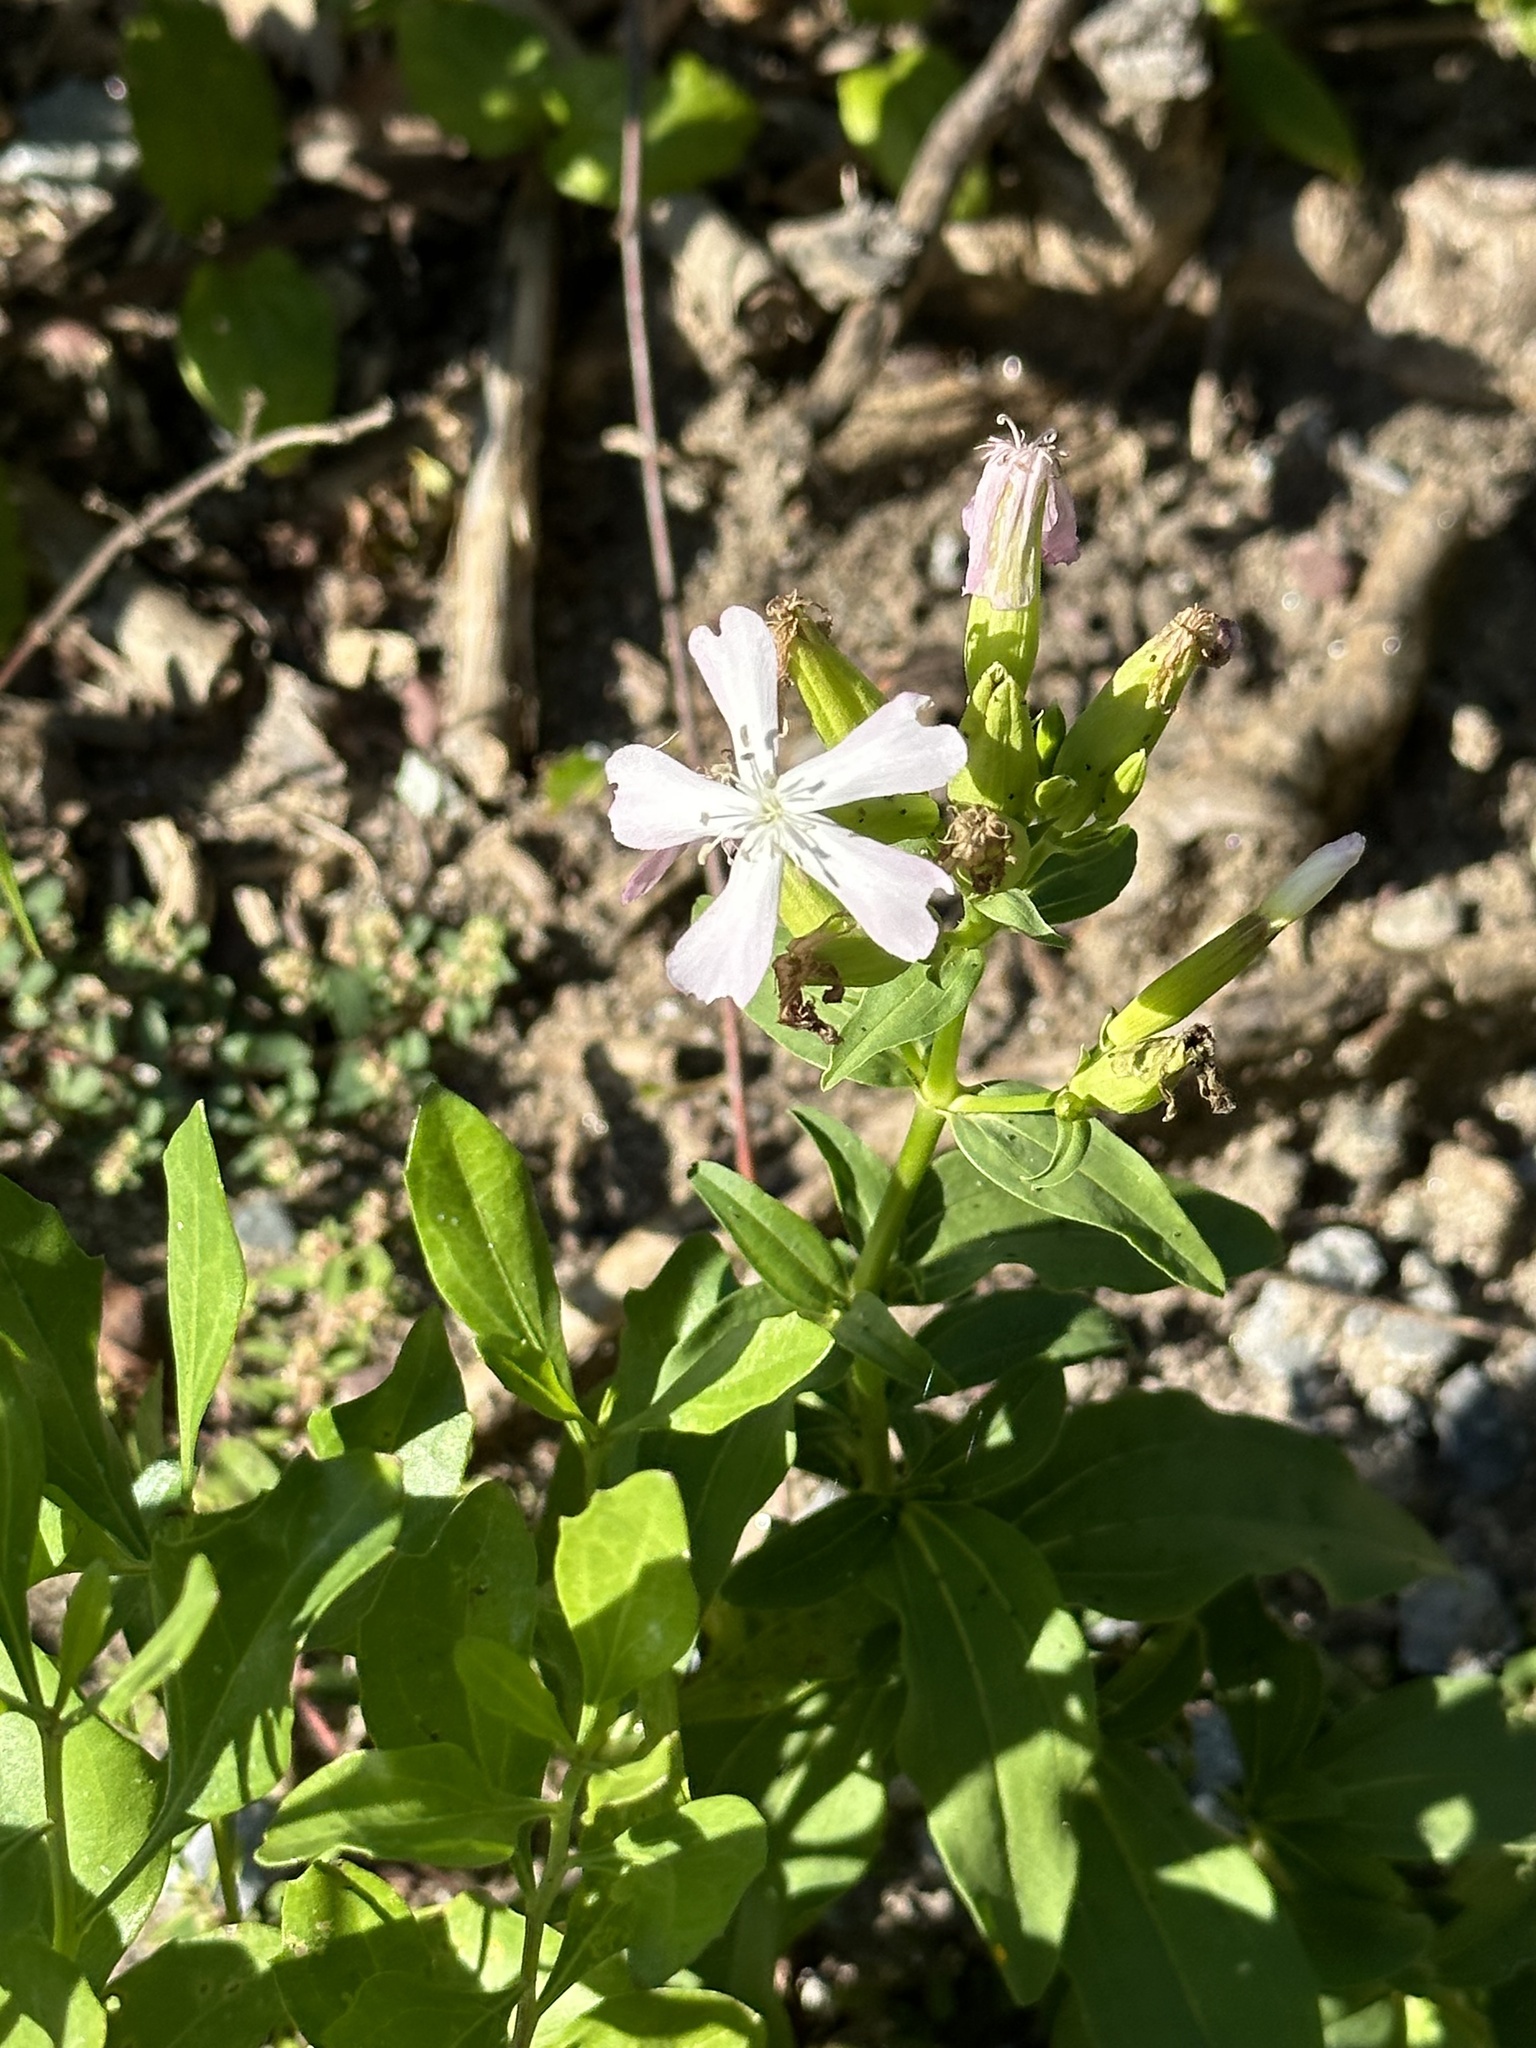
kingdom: Plantae
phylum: Tracheophyta
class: Magnoliopsida
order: Caryophyllales
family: Caryophyllaceae
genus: Saponaria
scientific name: Saponaria officinalis
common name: Soapwort
